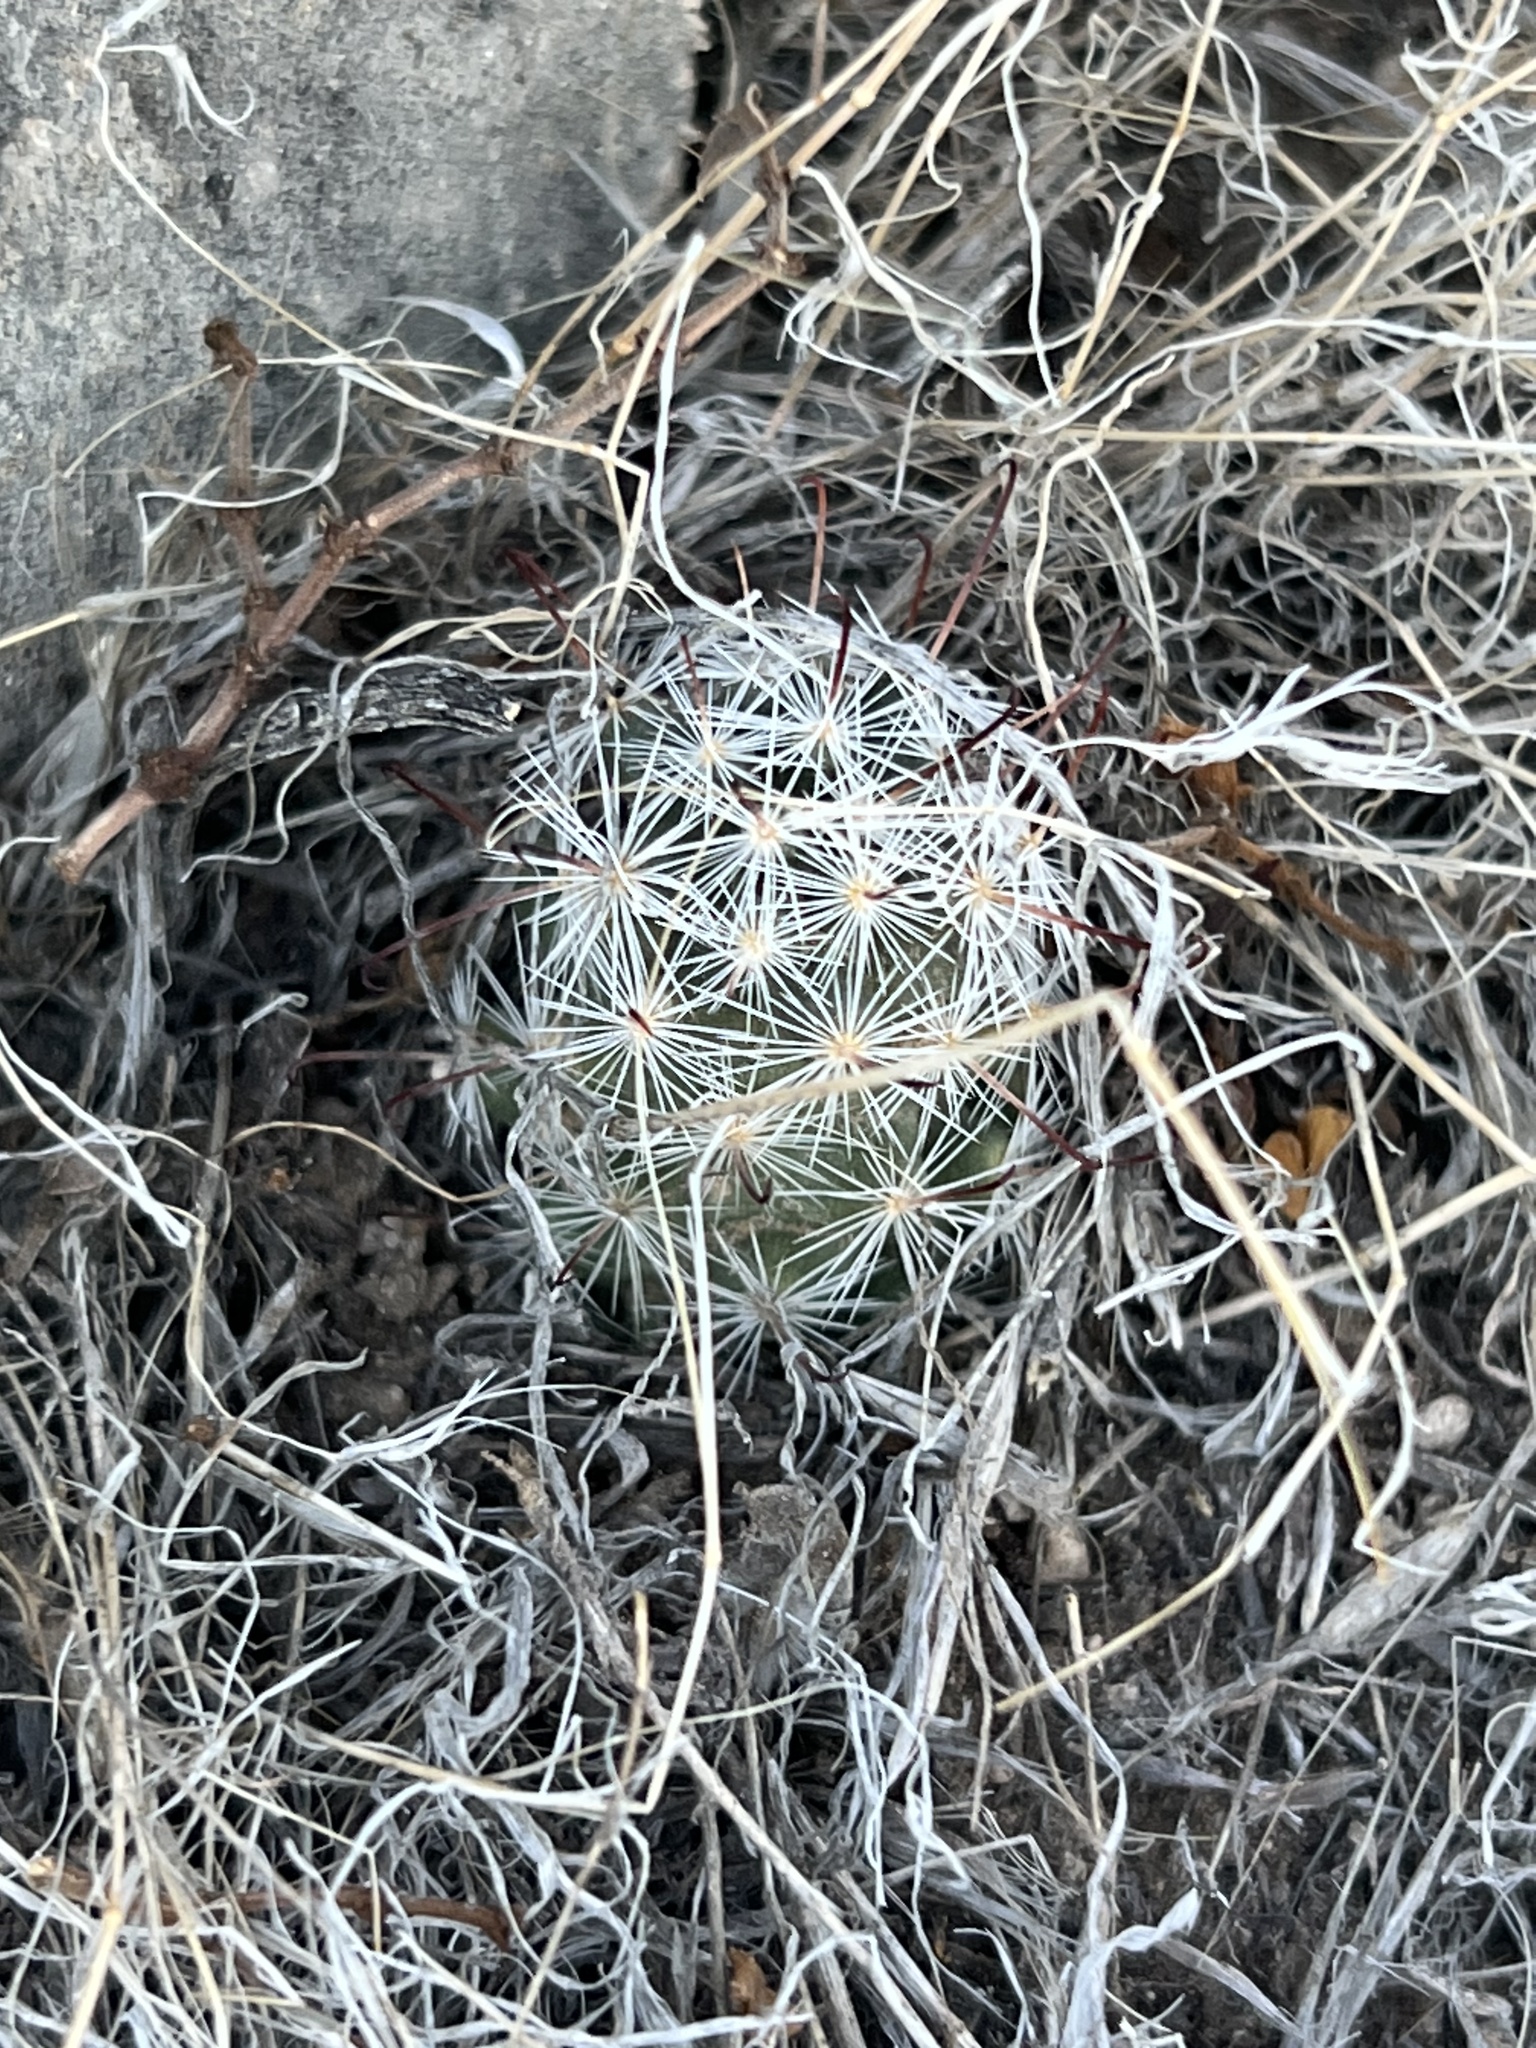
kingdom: Plantae
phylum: Tracheophyta
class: Magnoliopsida
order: Caryophyllales
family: Cactaceae
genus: Cochemiea
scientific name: Cochemiea tetrancistra
